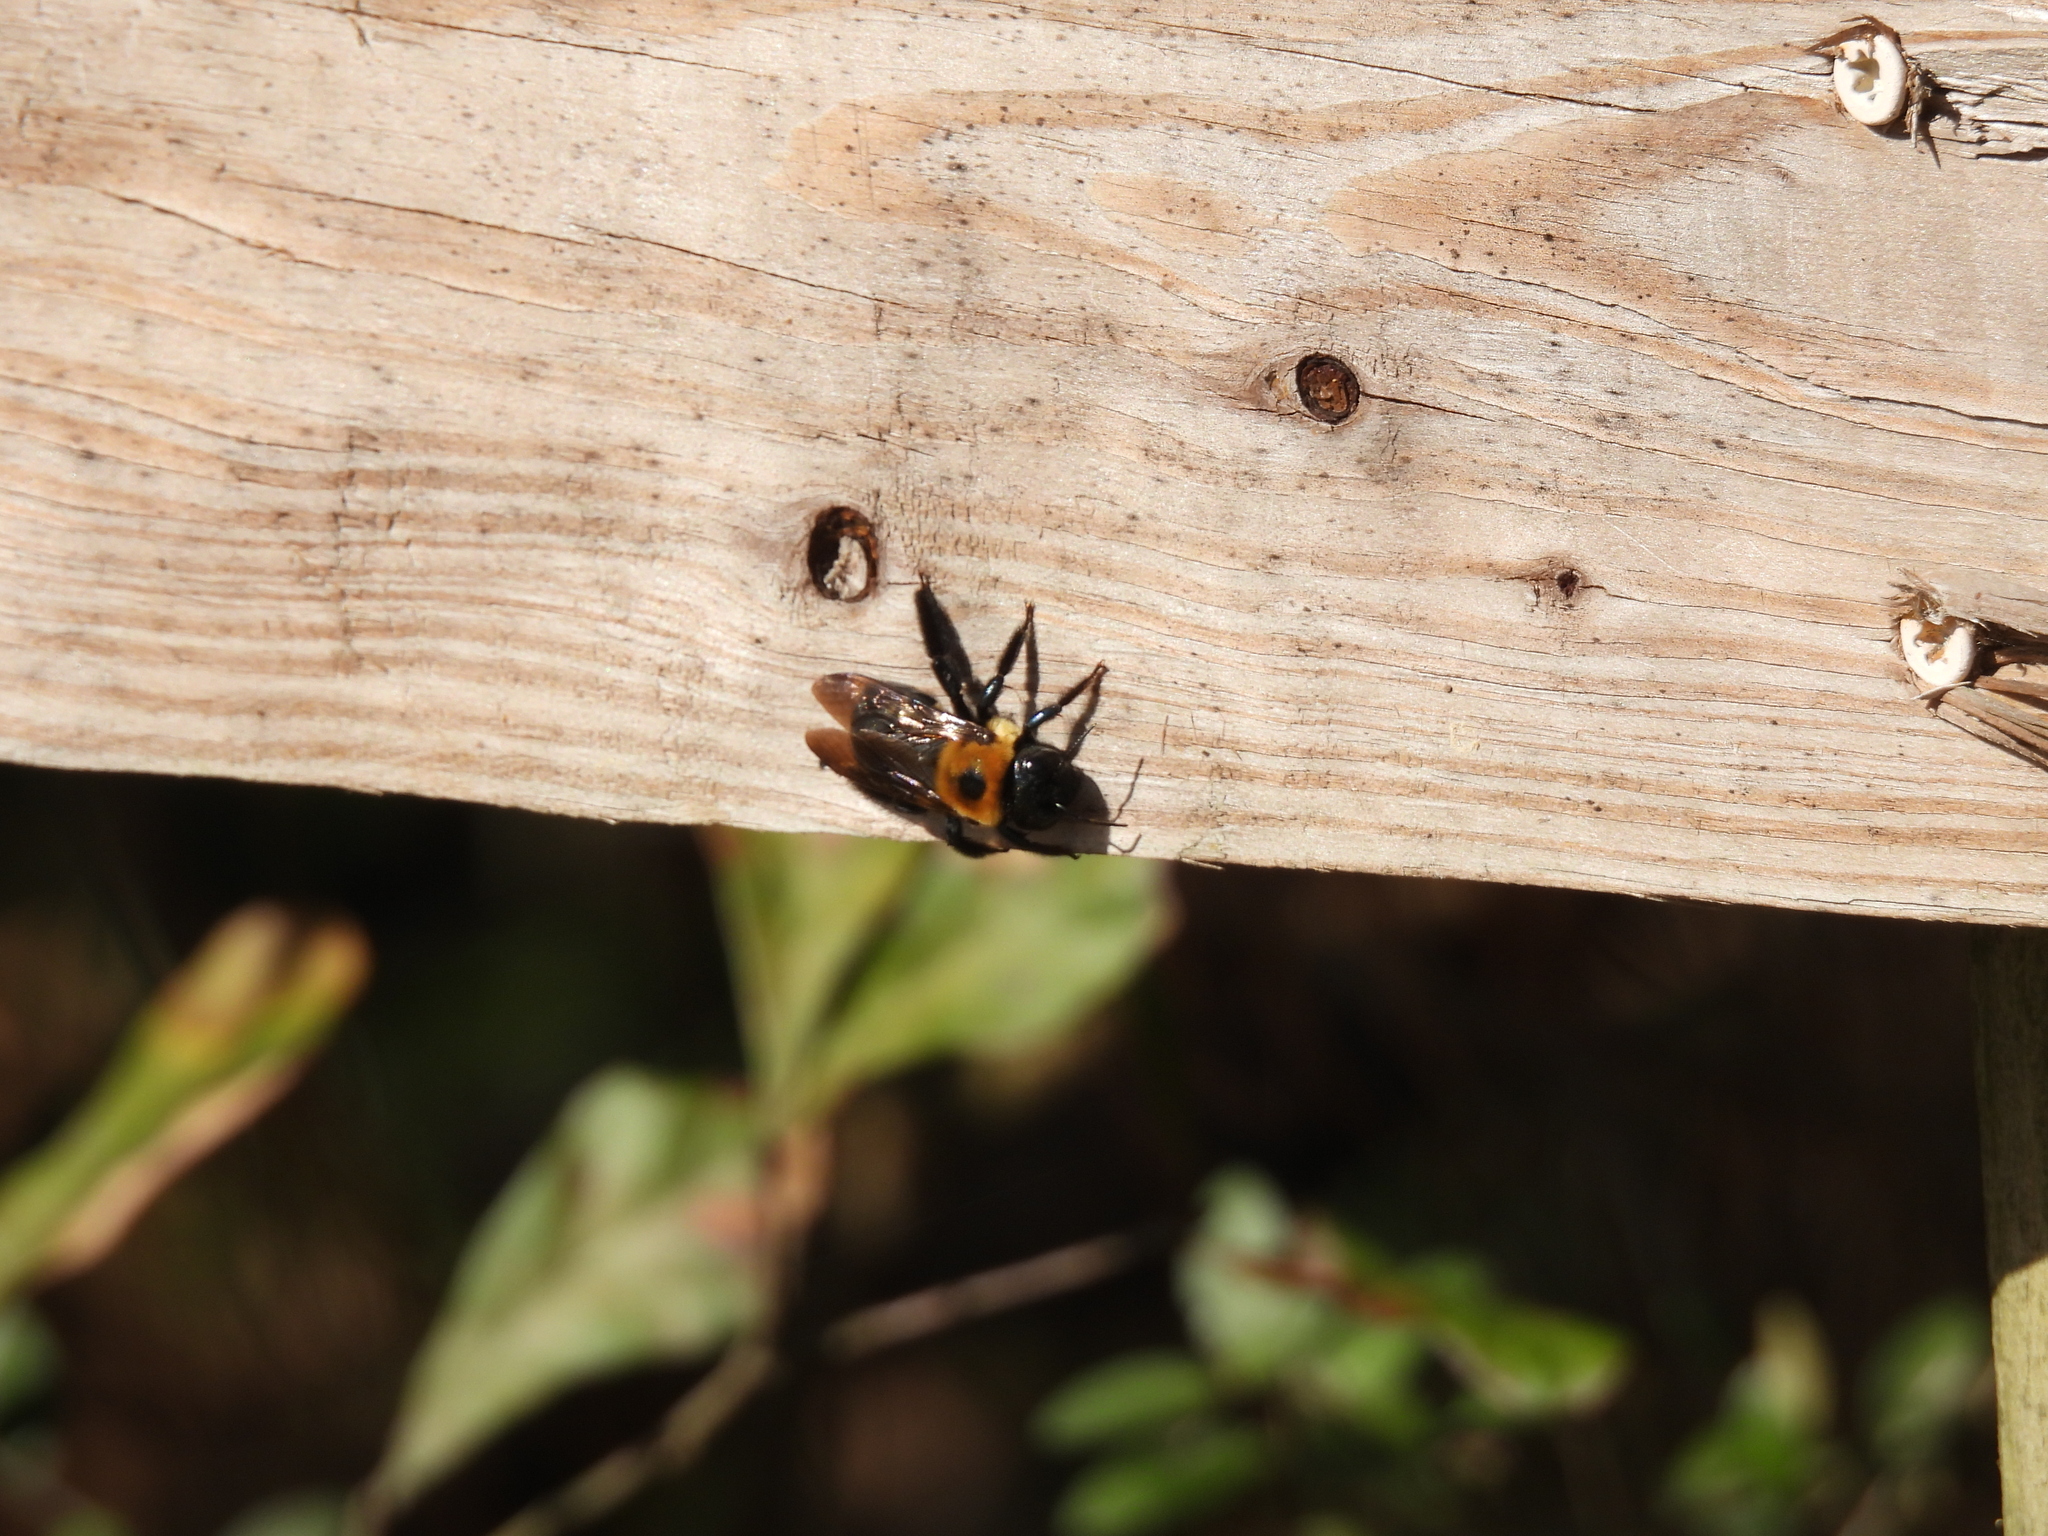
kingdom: Animalia
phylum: Arthropoda
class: Insecta
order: Hymenoptera
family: Apidae
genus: Xylocopa
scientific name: Xylocopa virginica
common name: Carpenter bee
